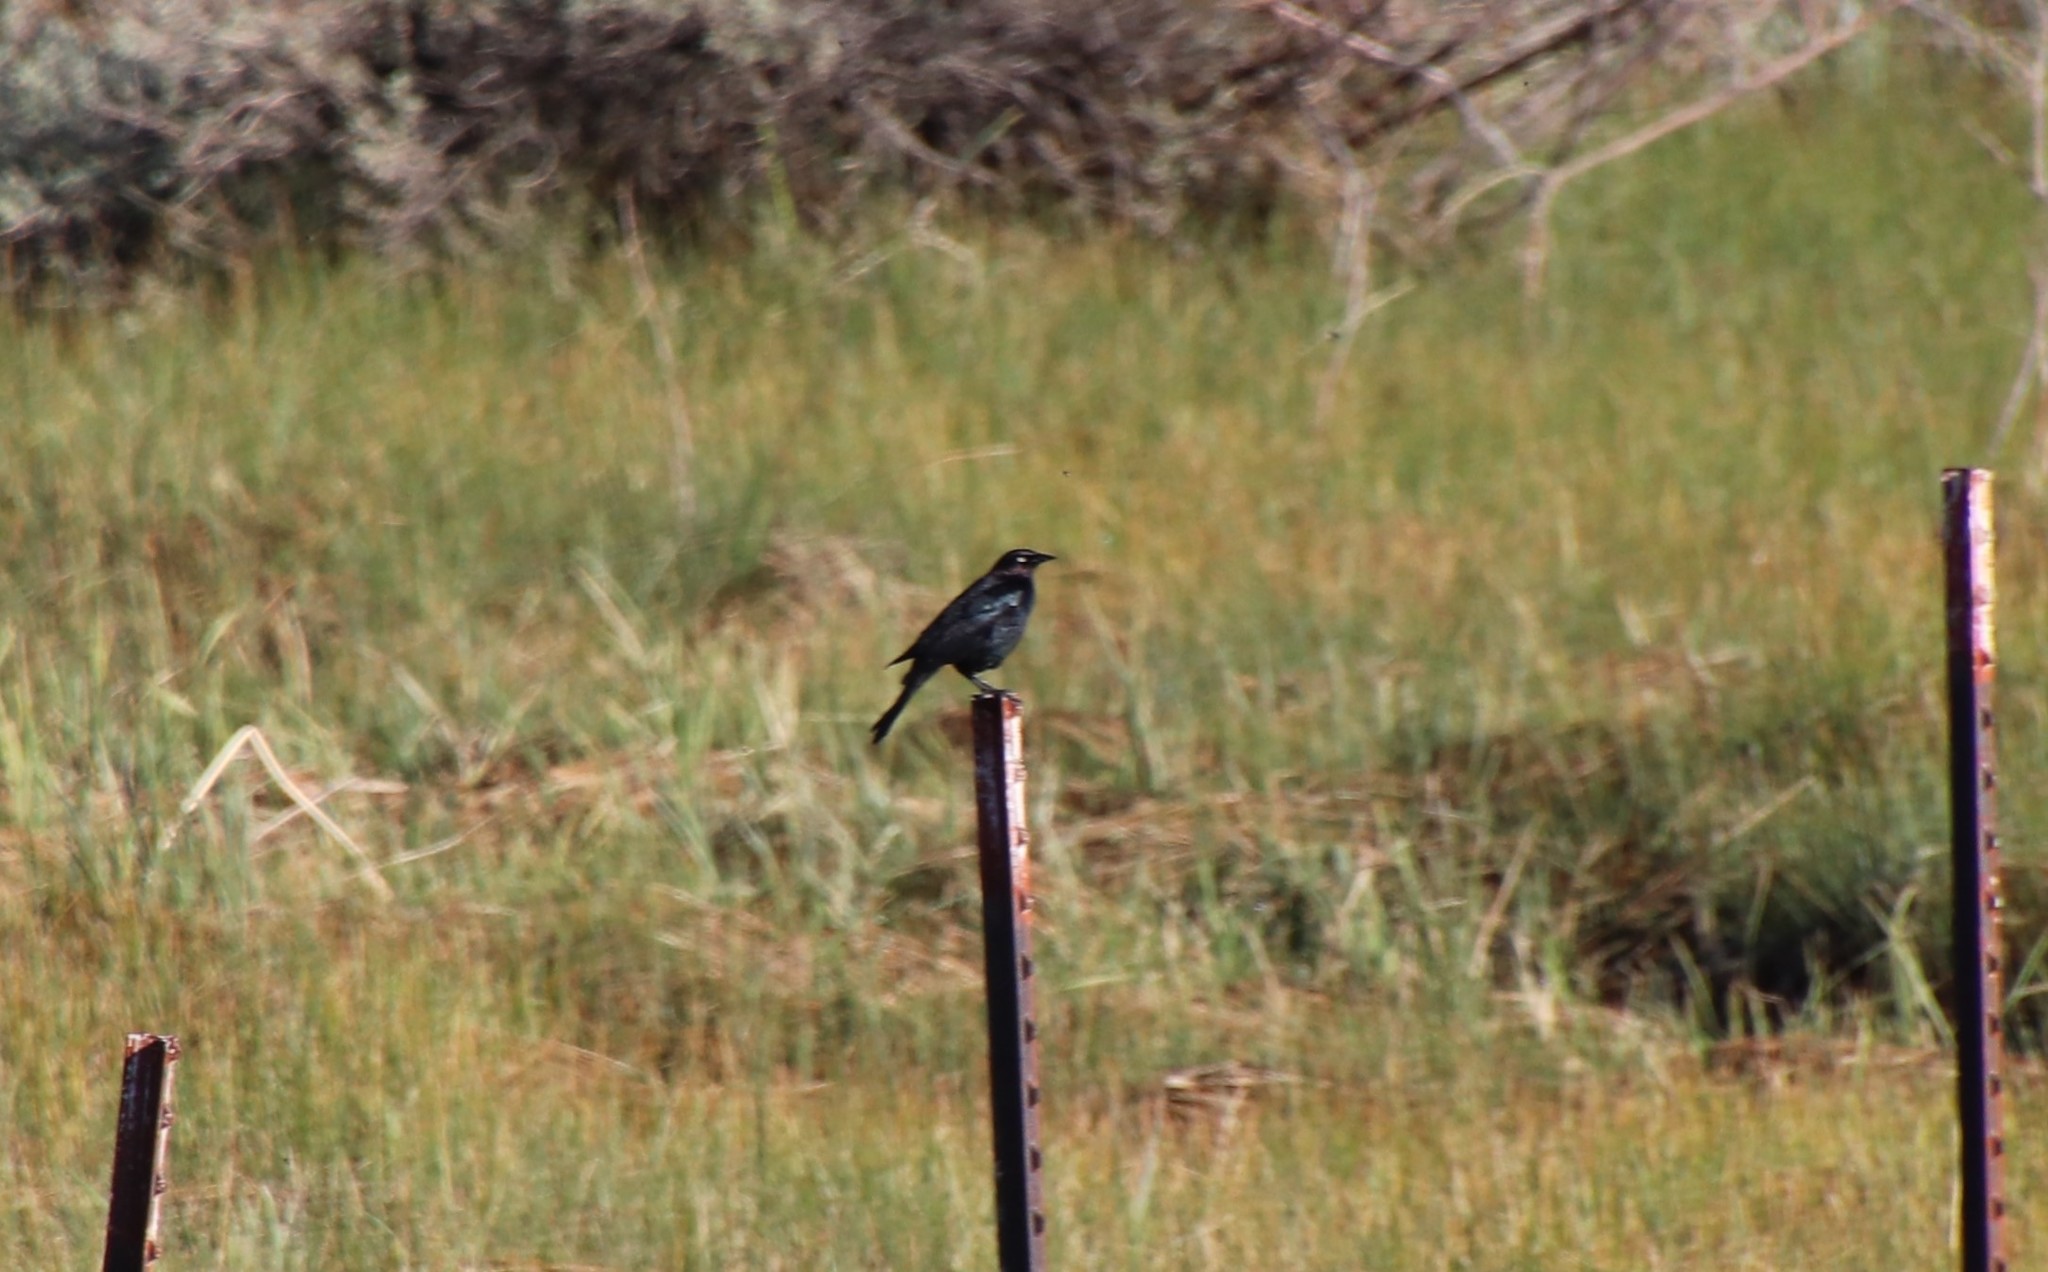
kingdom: Animalia
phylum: Chordata
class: Aves
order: Passeriformes
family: Icteridae
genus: Euphagus
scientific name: Euphagus cyanocephalus
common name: Brewer's blackbird
